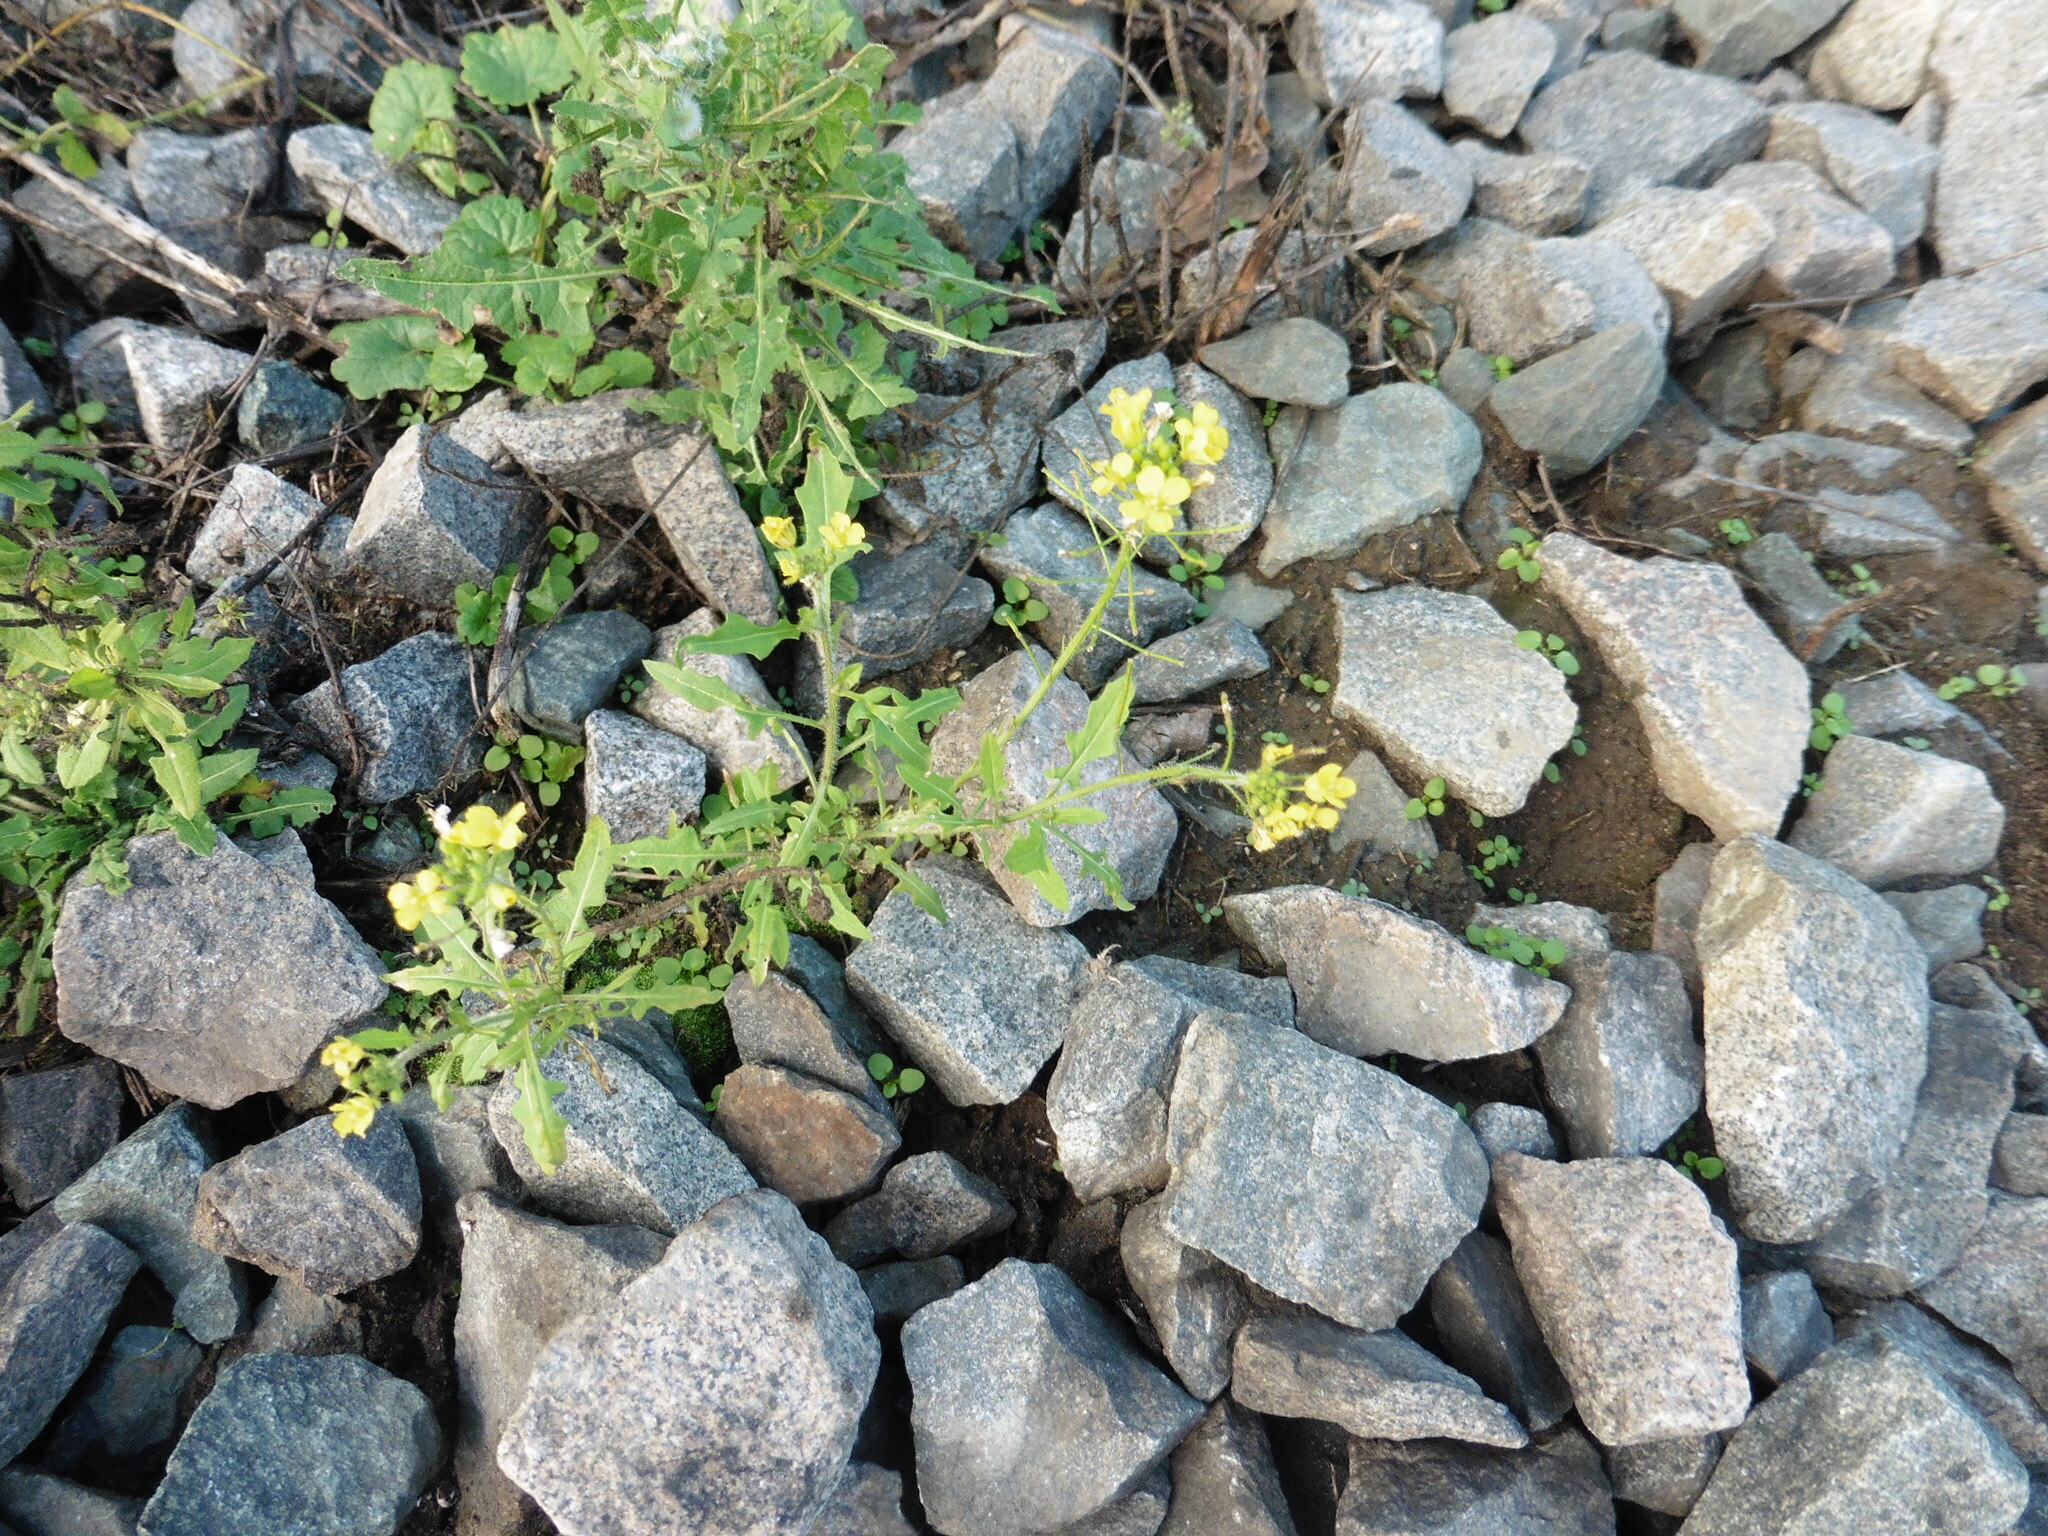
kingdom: Plantae
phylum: Tracheophyta
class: Magnoliopsida
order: Brassicales
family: Brassicaceae
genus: Sisymbrium
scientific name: Sisymbrium loeselii
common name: False london-rocket
